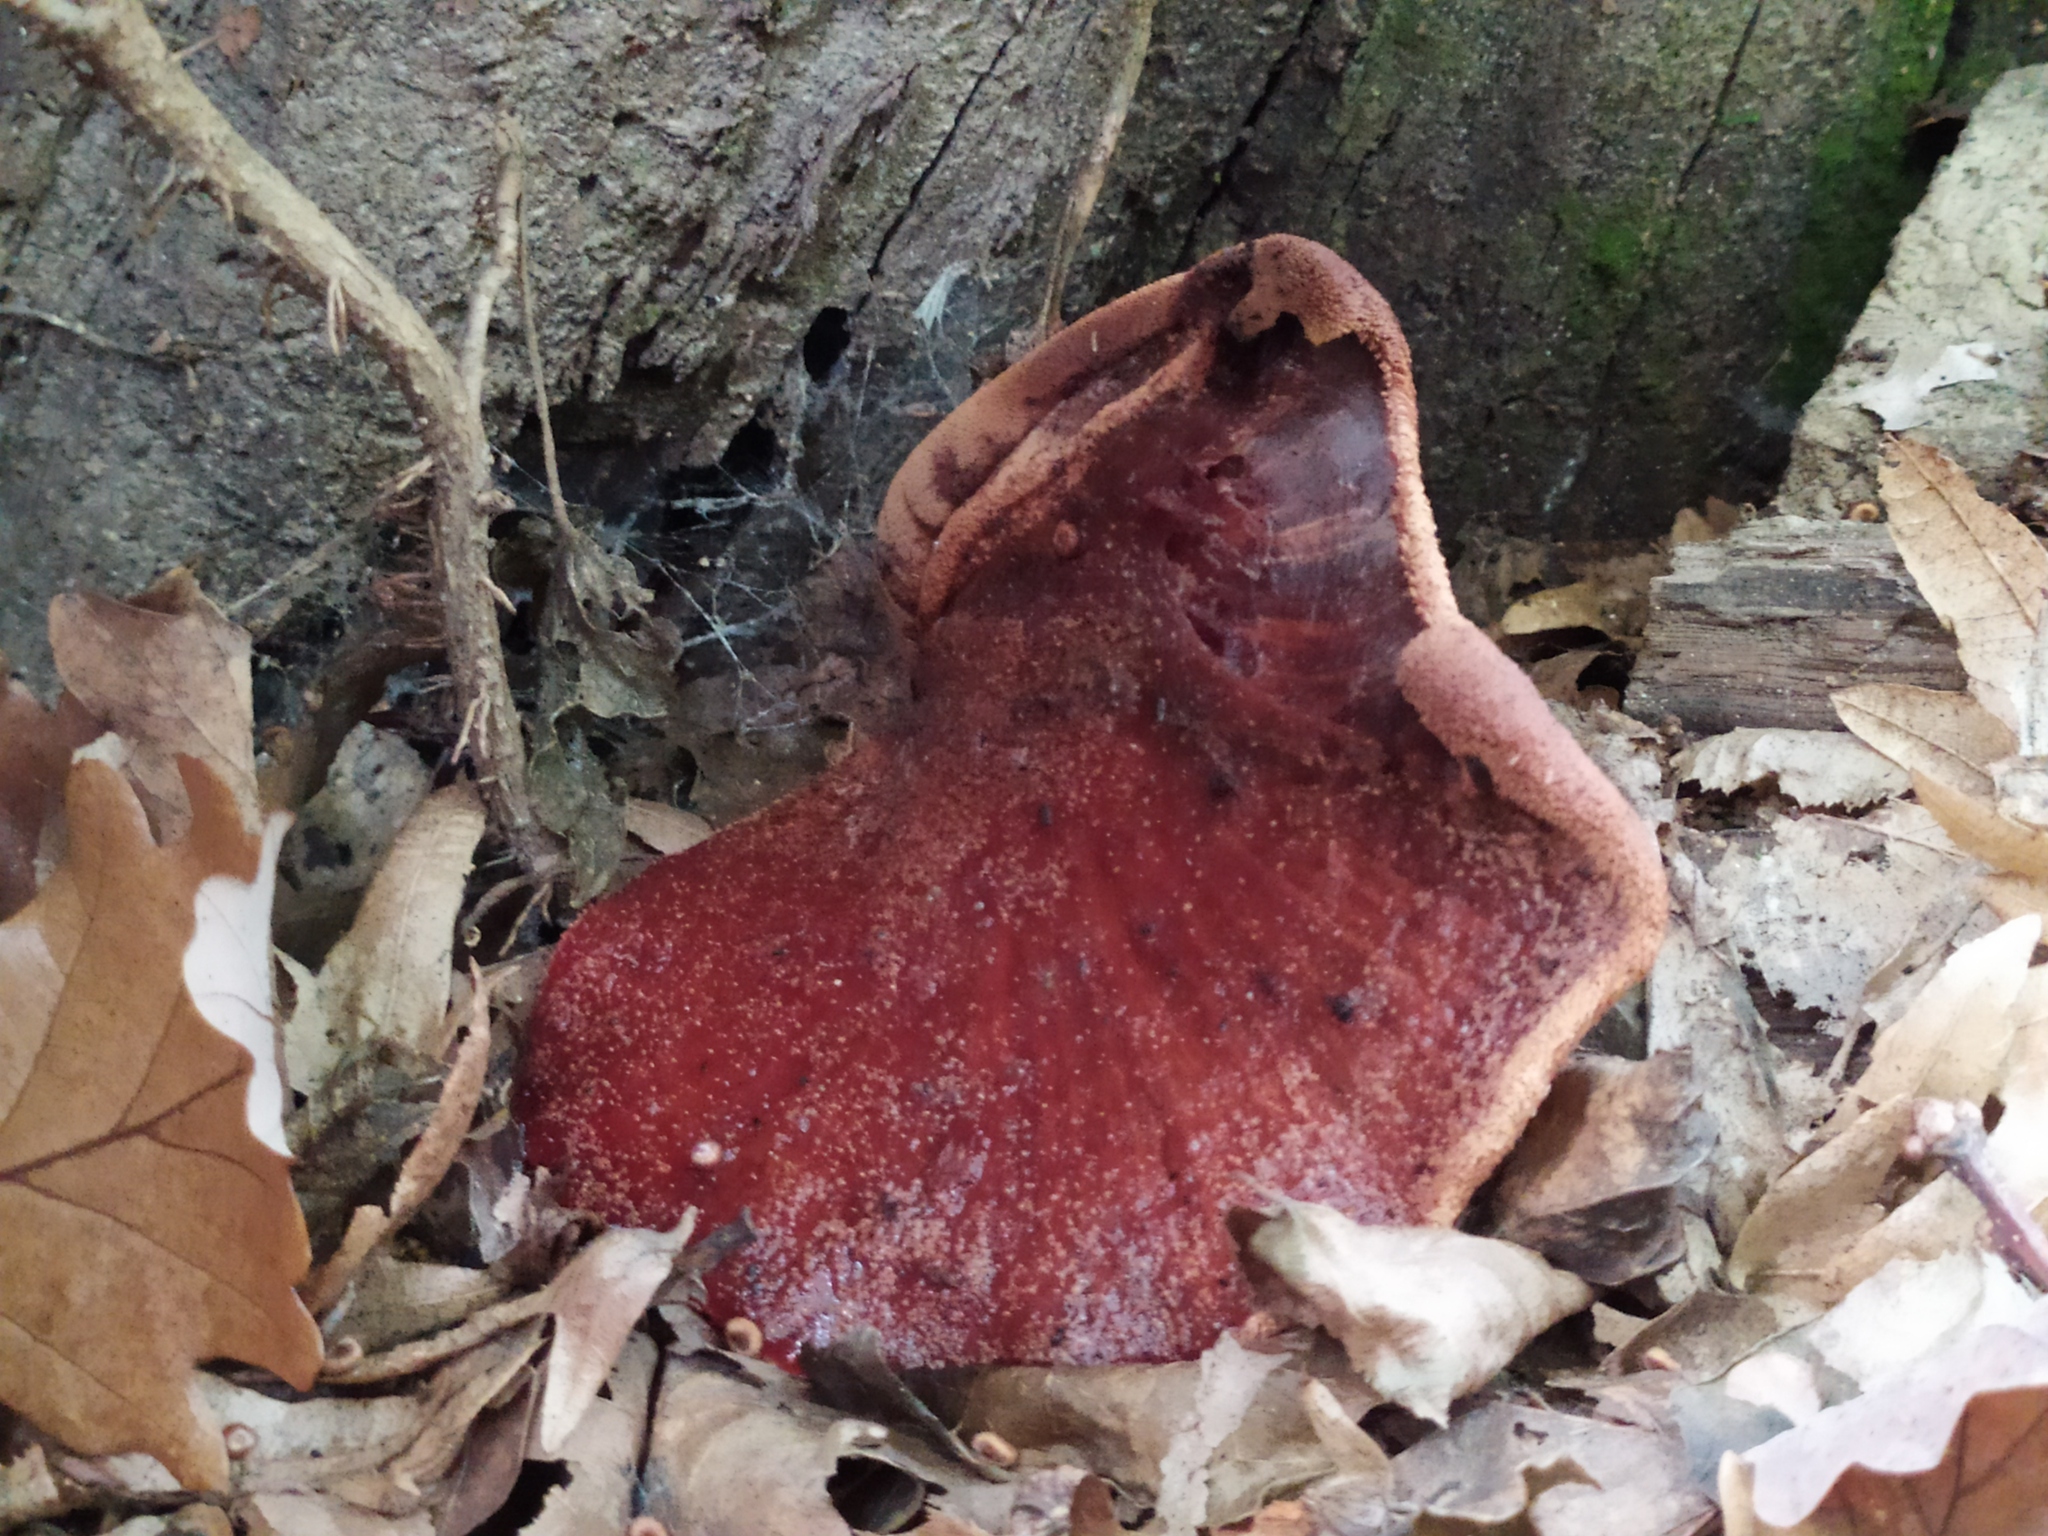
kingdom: Fungi
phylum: Basidiomycota
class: Agaricomycetes
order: Agaricales
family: Fistulinaceae
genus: Fistulina
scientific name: Fistulina hepatica
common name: Beef-steak fungus
